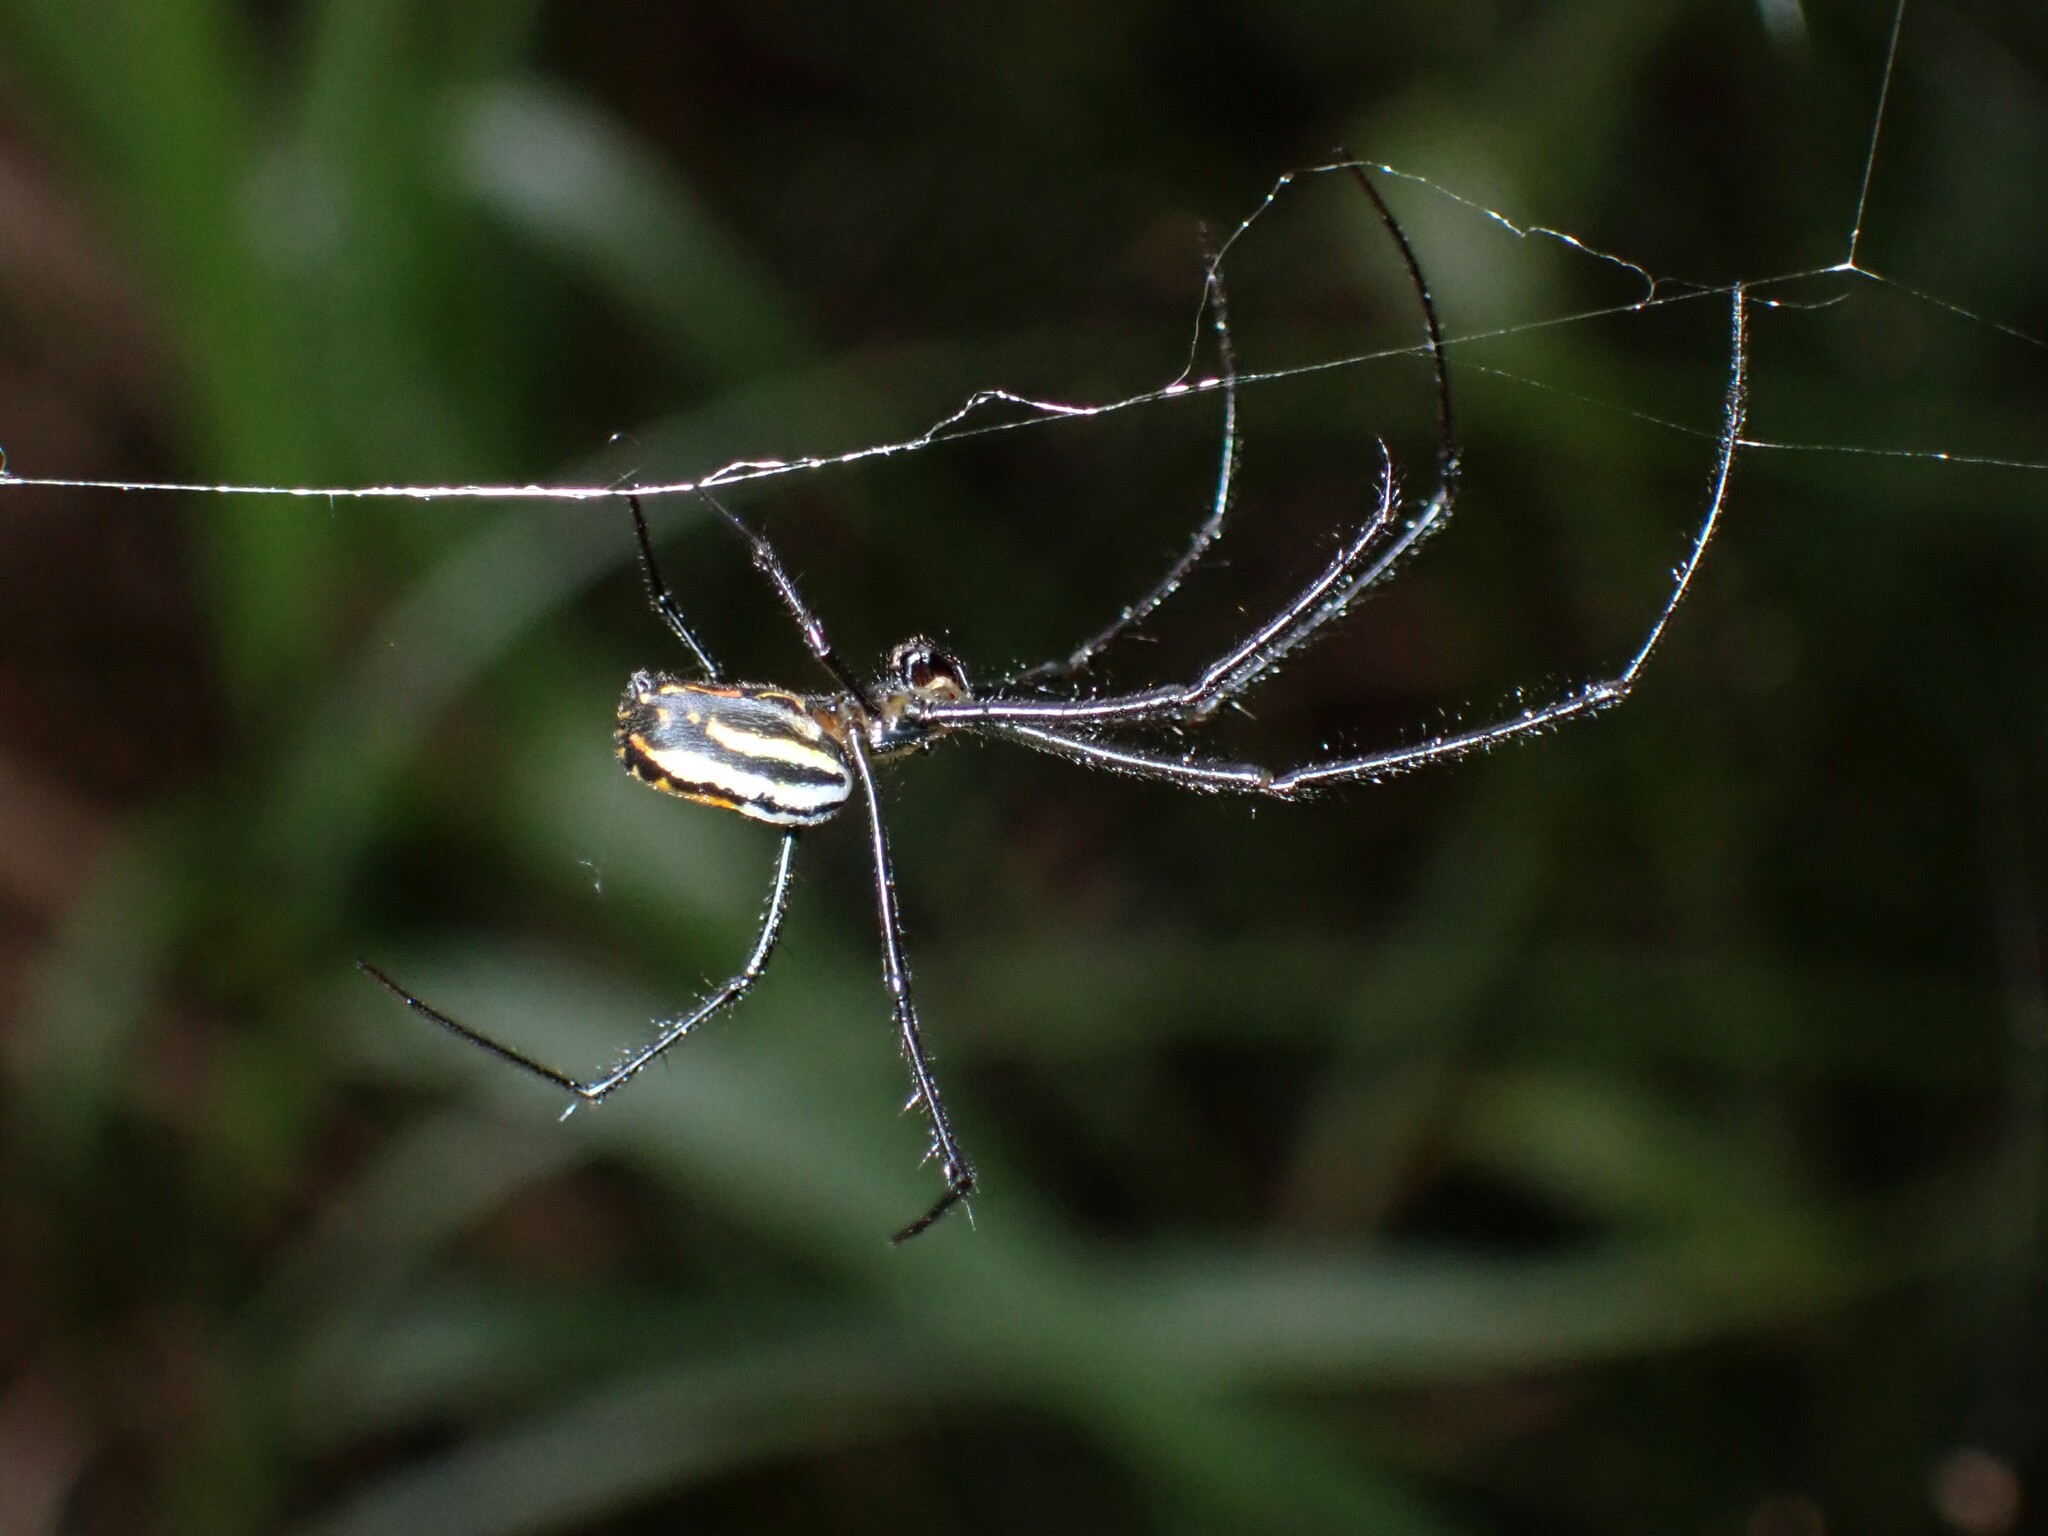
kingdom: Animalia
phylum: Arthropoda
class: Arachnida
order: Araneae
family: Tetragnathidae
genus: Leucauge
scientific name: Leucauge hebridisiana
